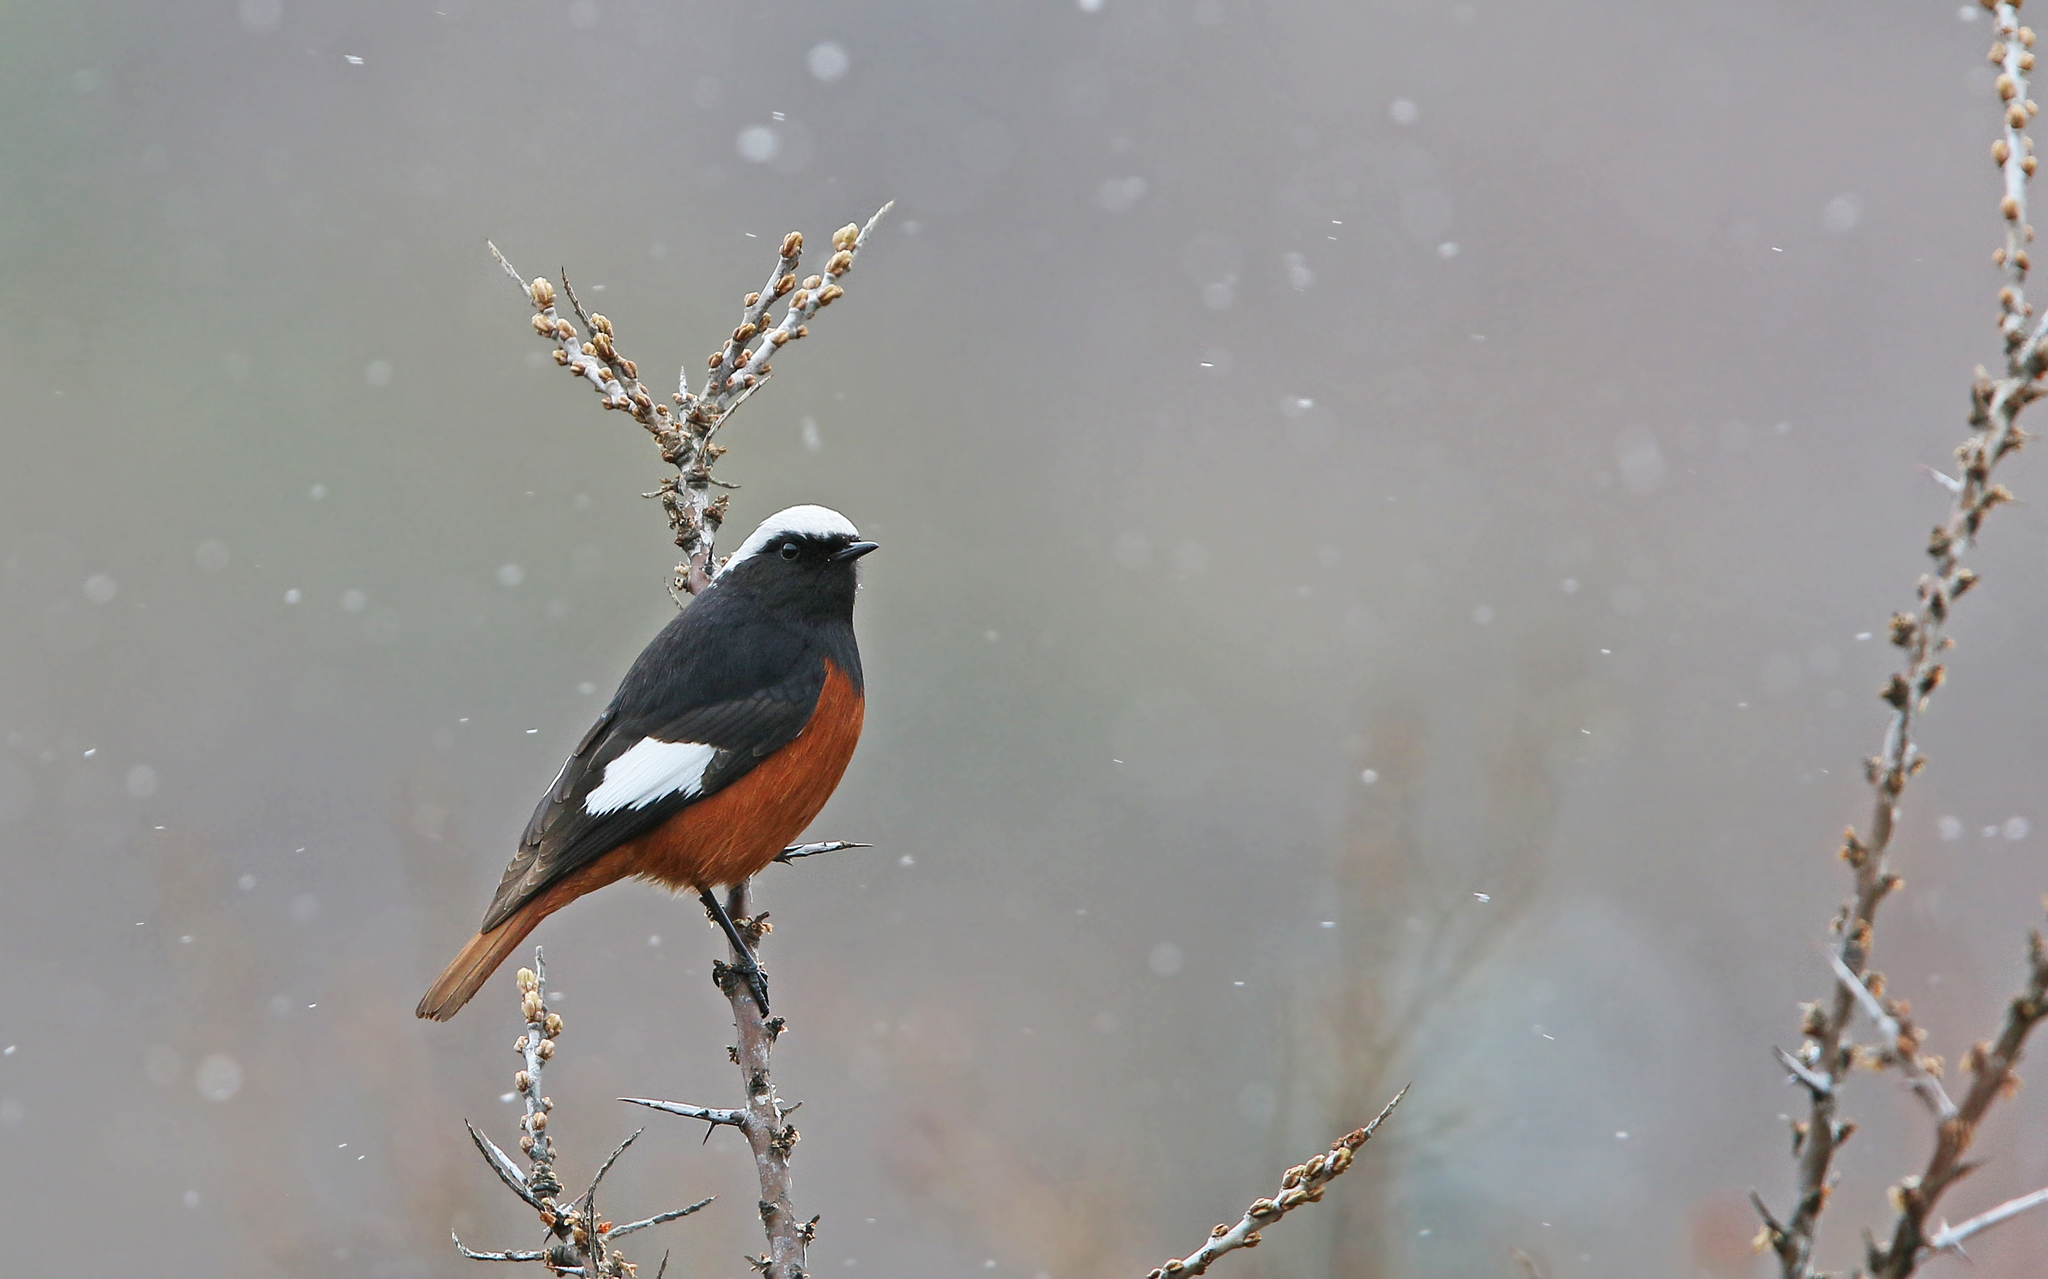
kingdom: Animalia
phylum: Chordata
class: Aves
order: Passeriformes
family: Muscicapidae
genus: Phoenicurus
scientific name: Phoenicurus erythrogastrus
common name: Güldenstädt's redstart
